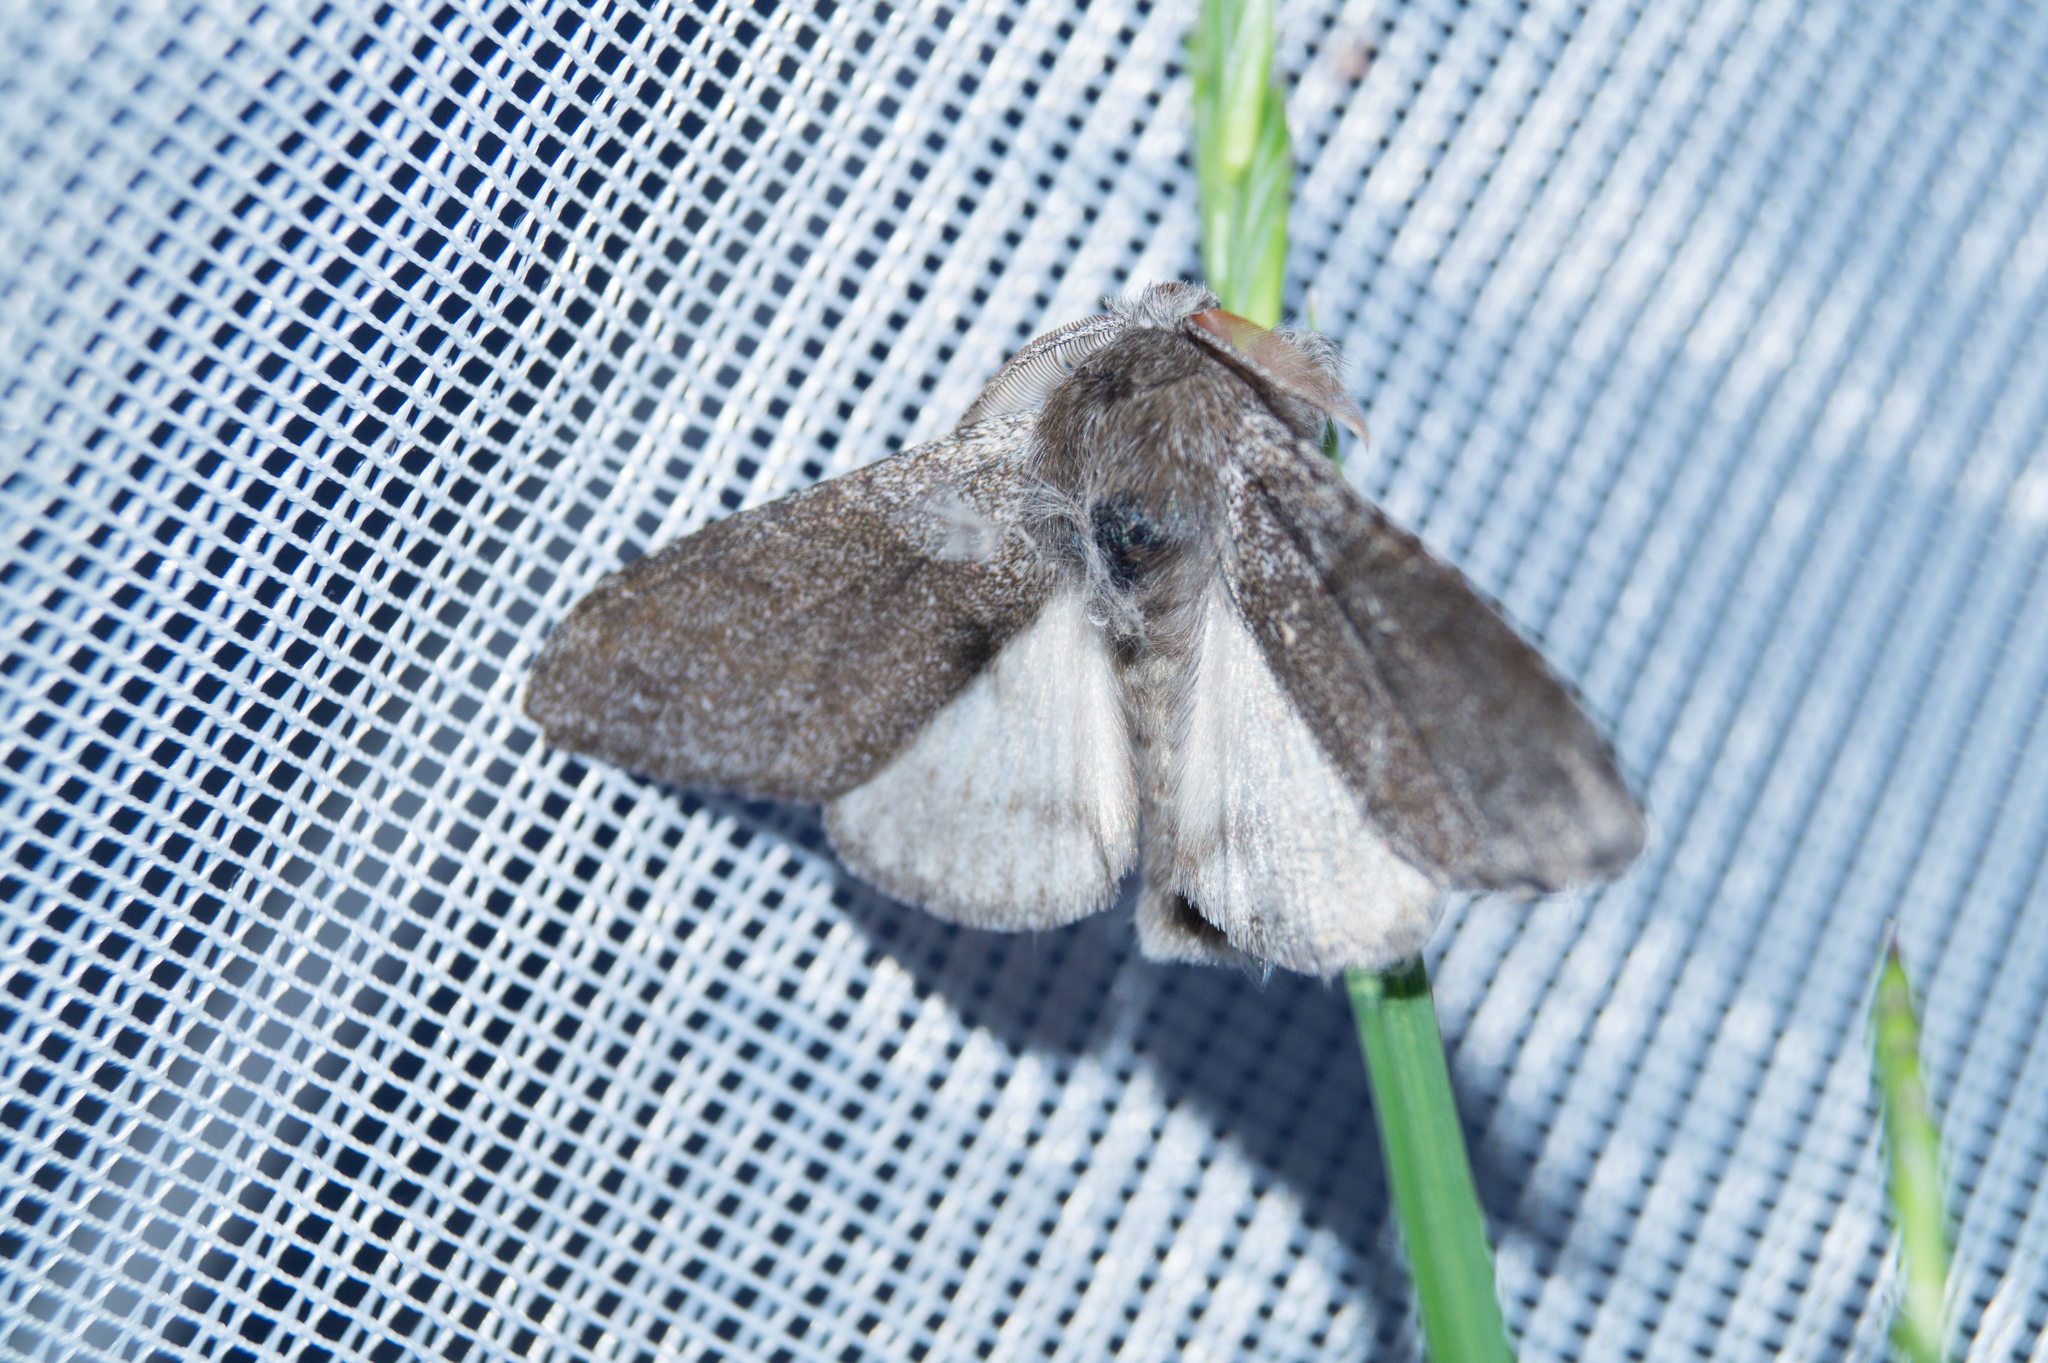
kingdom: Animalia
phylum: Arthropoda
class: Insecta
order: Lepidoptera
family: Erebidae
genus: Calliteara
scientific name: Calliteara pudibunda
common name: Pale tussock
